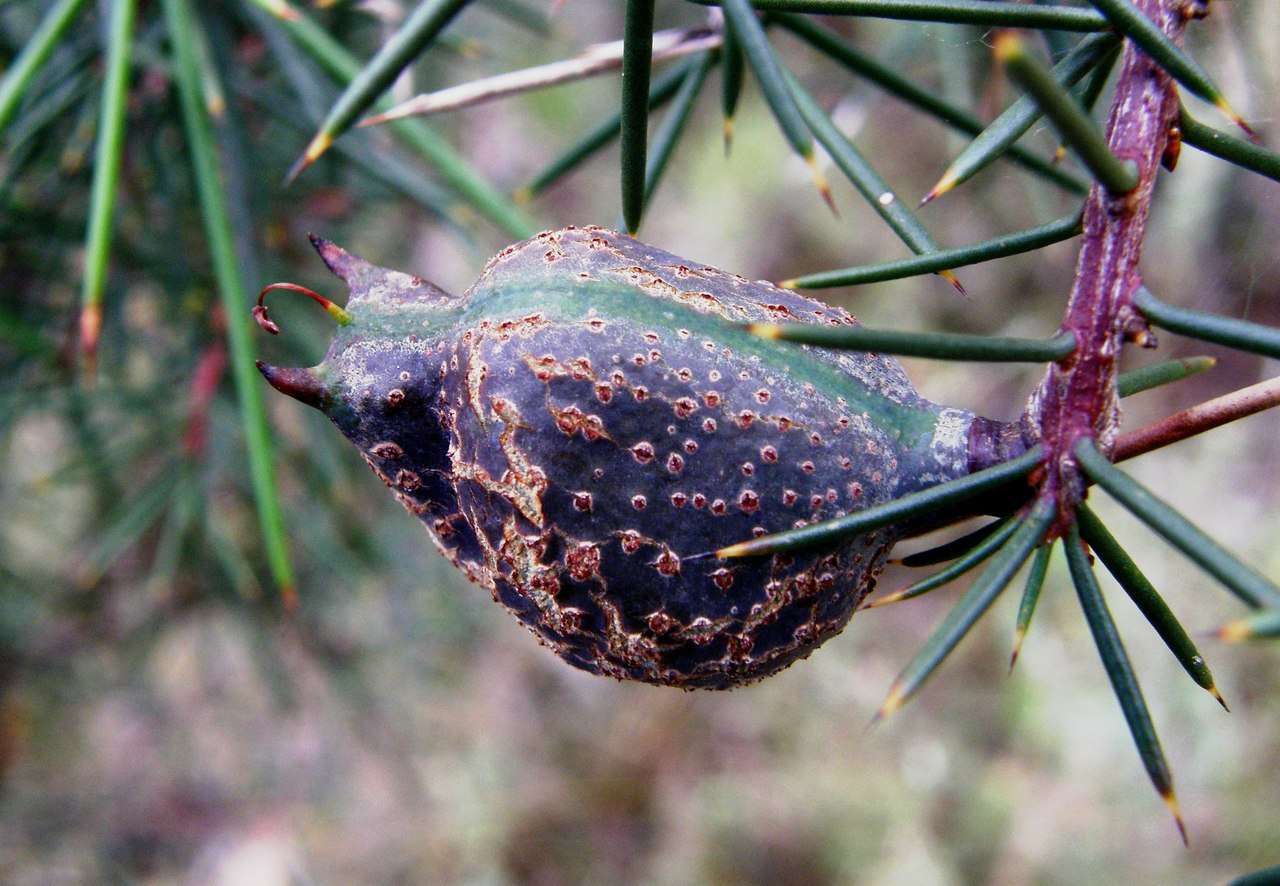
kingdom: Plantae
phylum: Tracheophyta
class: Magnoliopsida
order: Proteales
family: Proteaceae
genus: Hakea
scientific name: Hakea decurrens
